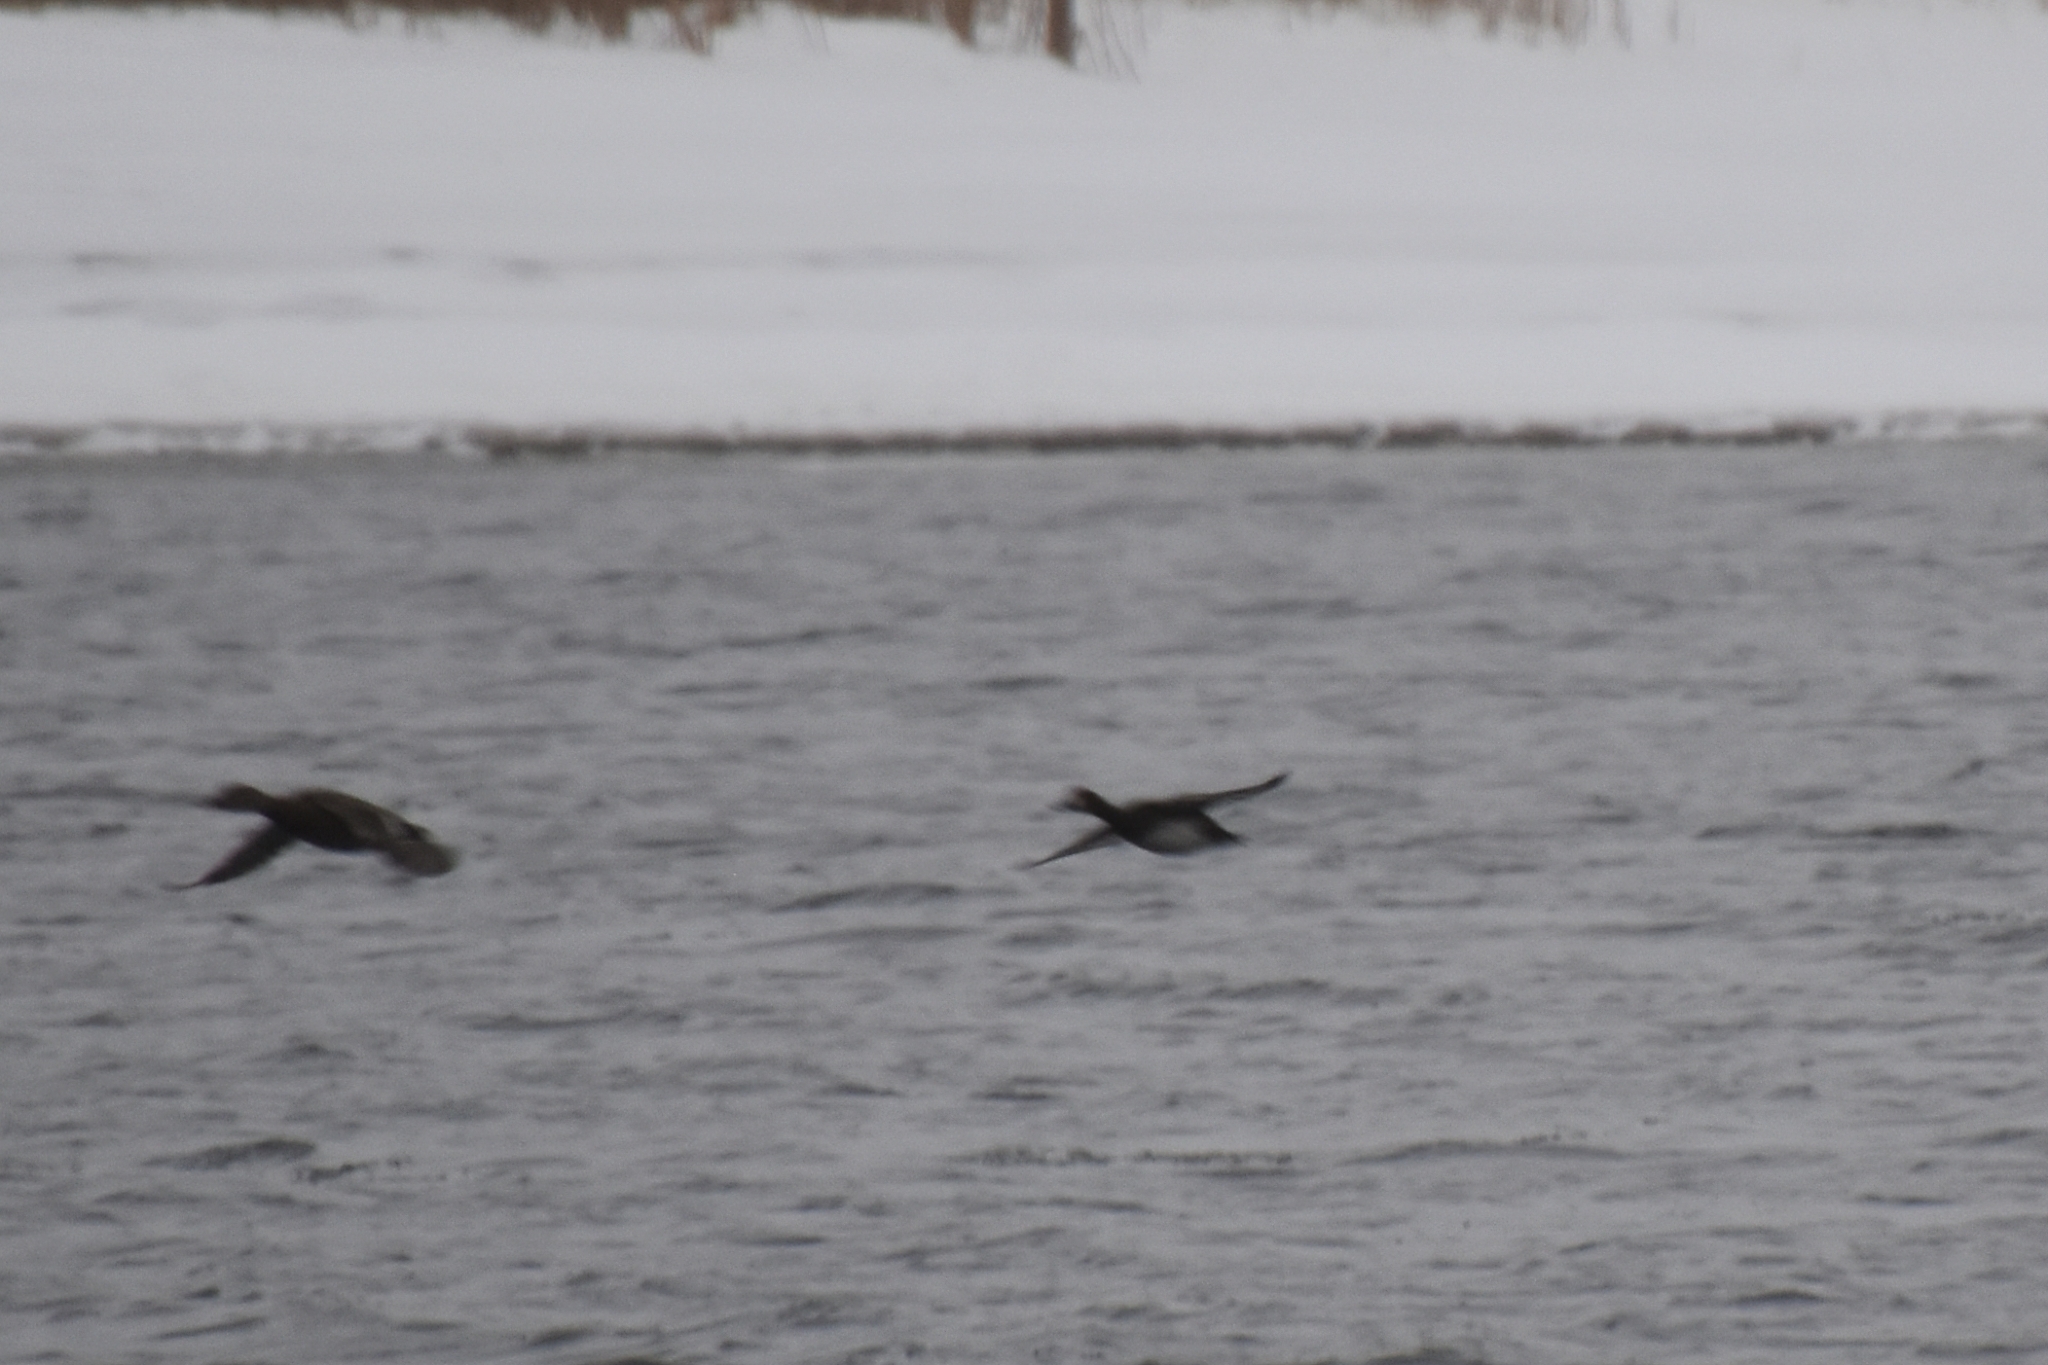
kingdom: Animalia
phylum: Chordata
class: Aves
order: Anseriformes
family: Anatidae
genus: Aythya
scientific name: Aythya marila
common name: Greater scaup
